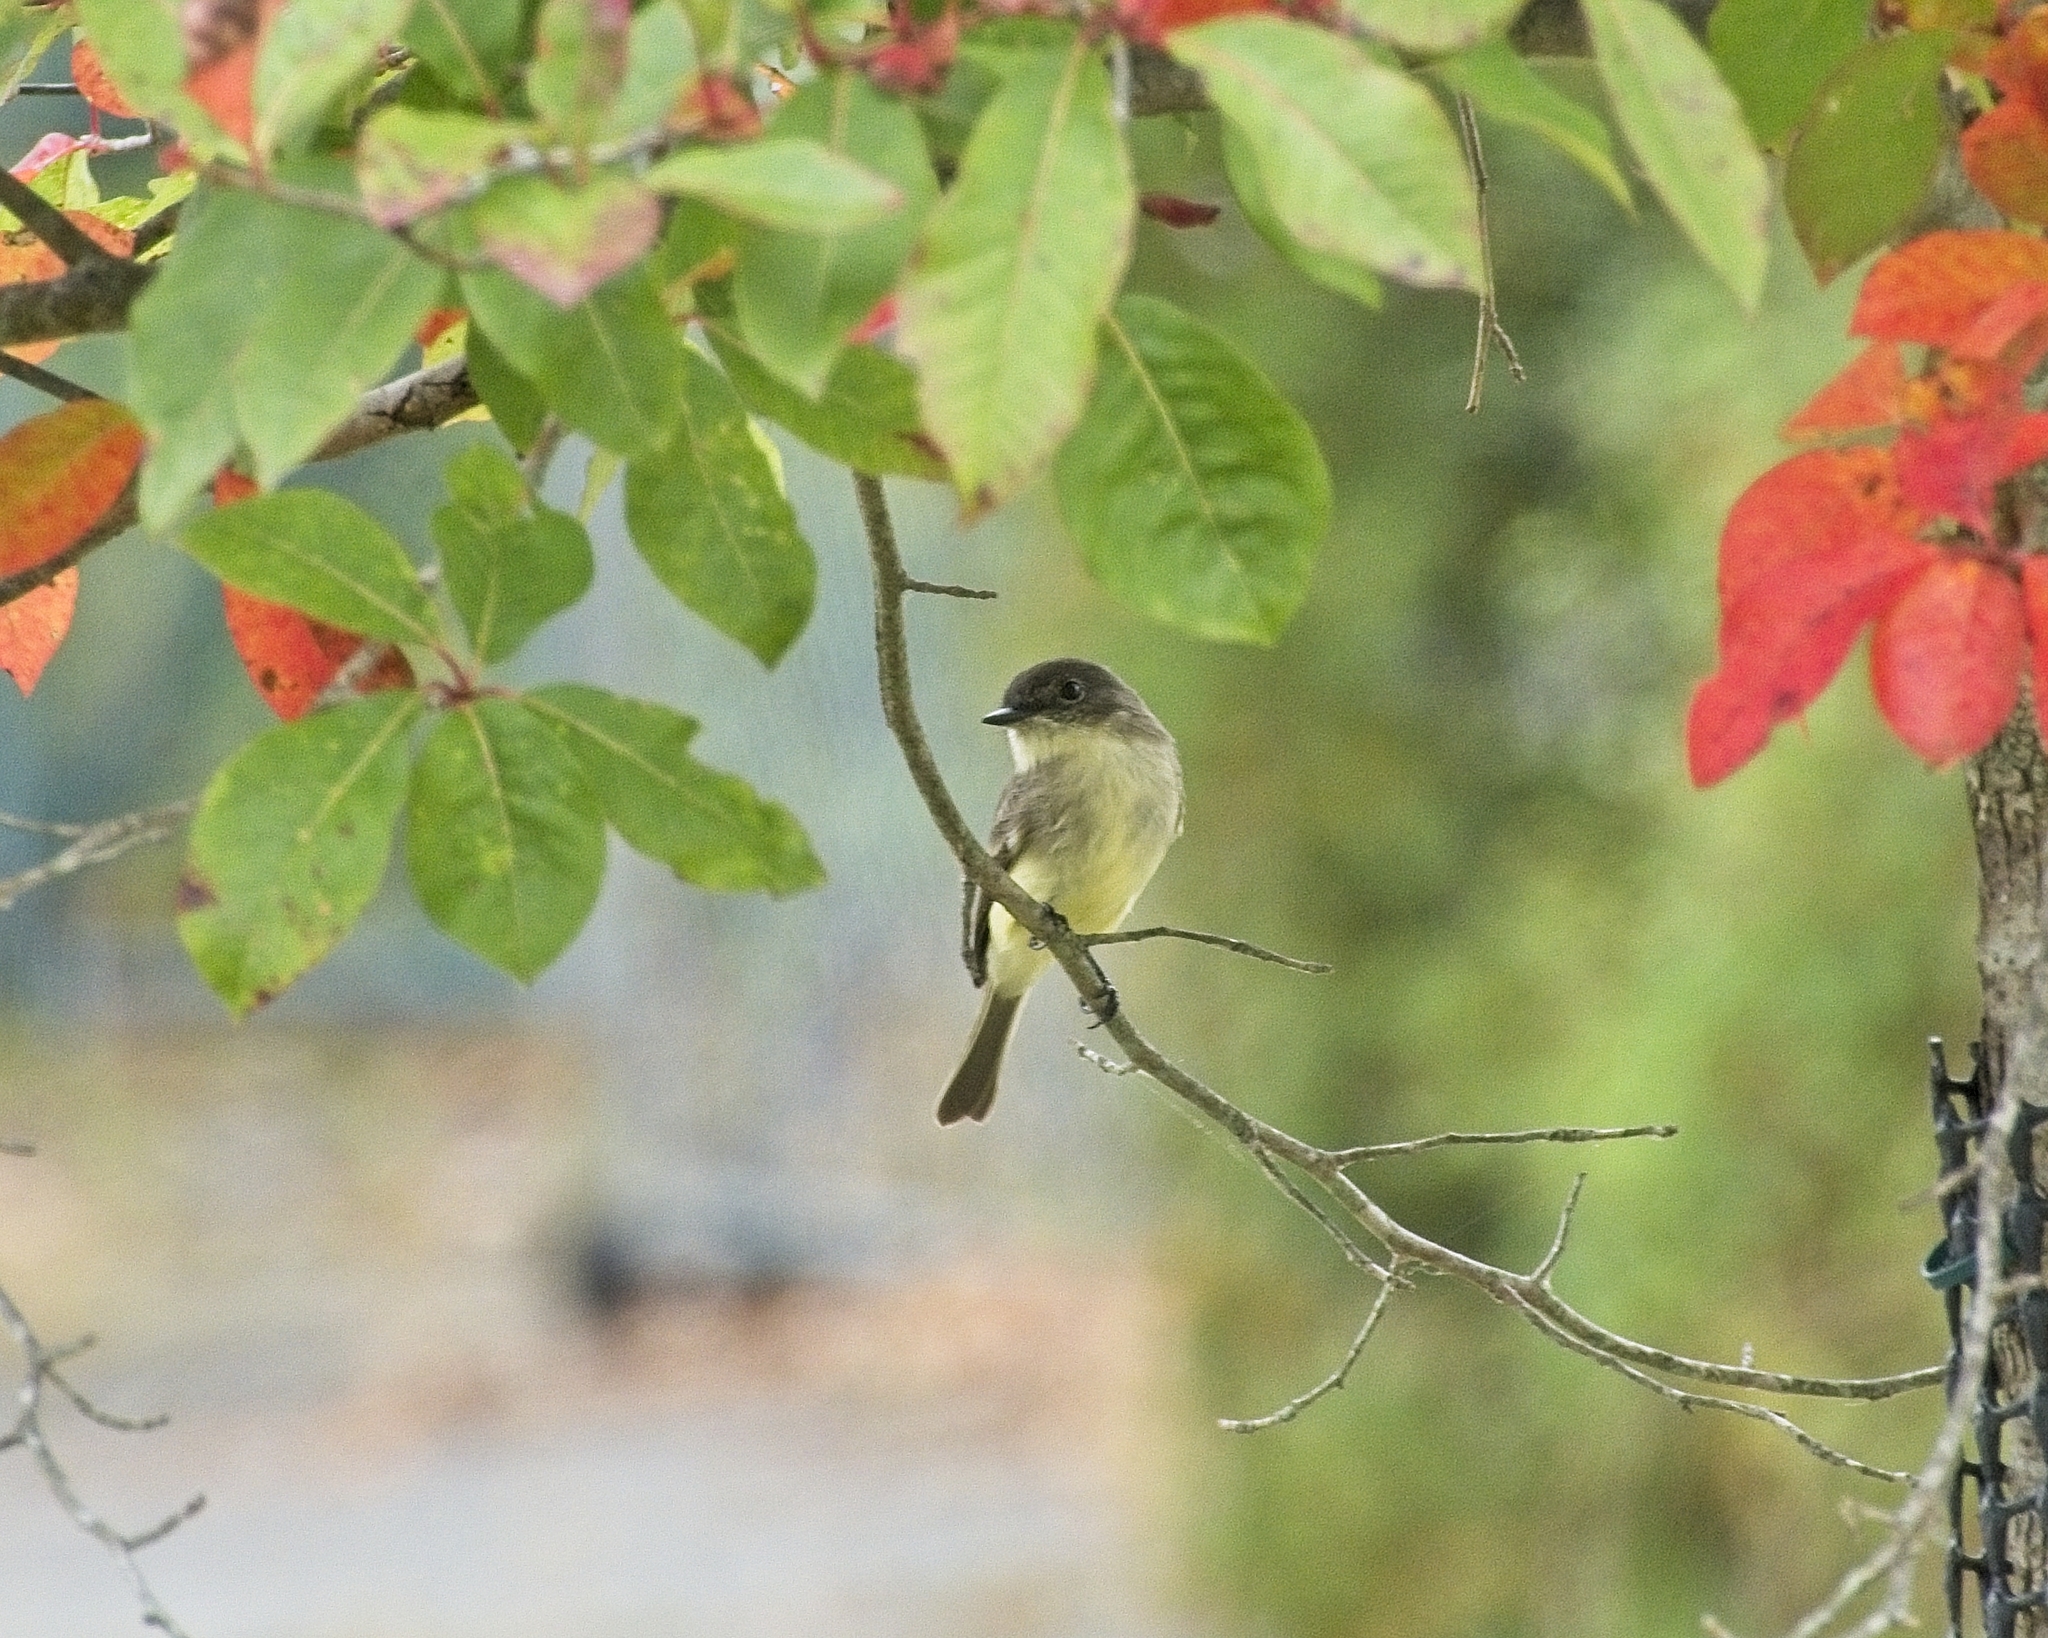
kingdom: Animalia
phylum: Chordata
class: Aves
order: Passeriformes
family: Tyrannidae
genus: Sayornis
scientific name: Sayornis phoebe
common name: Eastern phoebe
